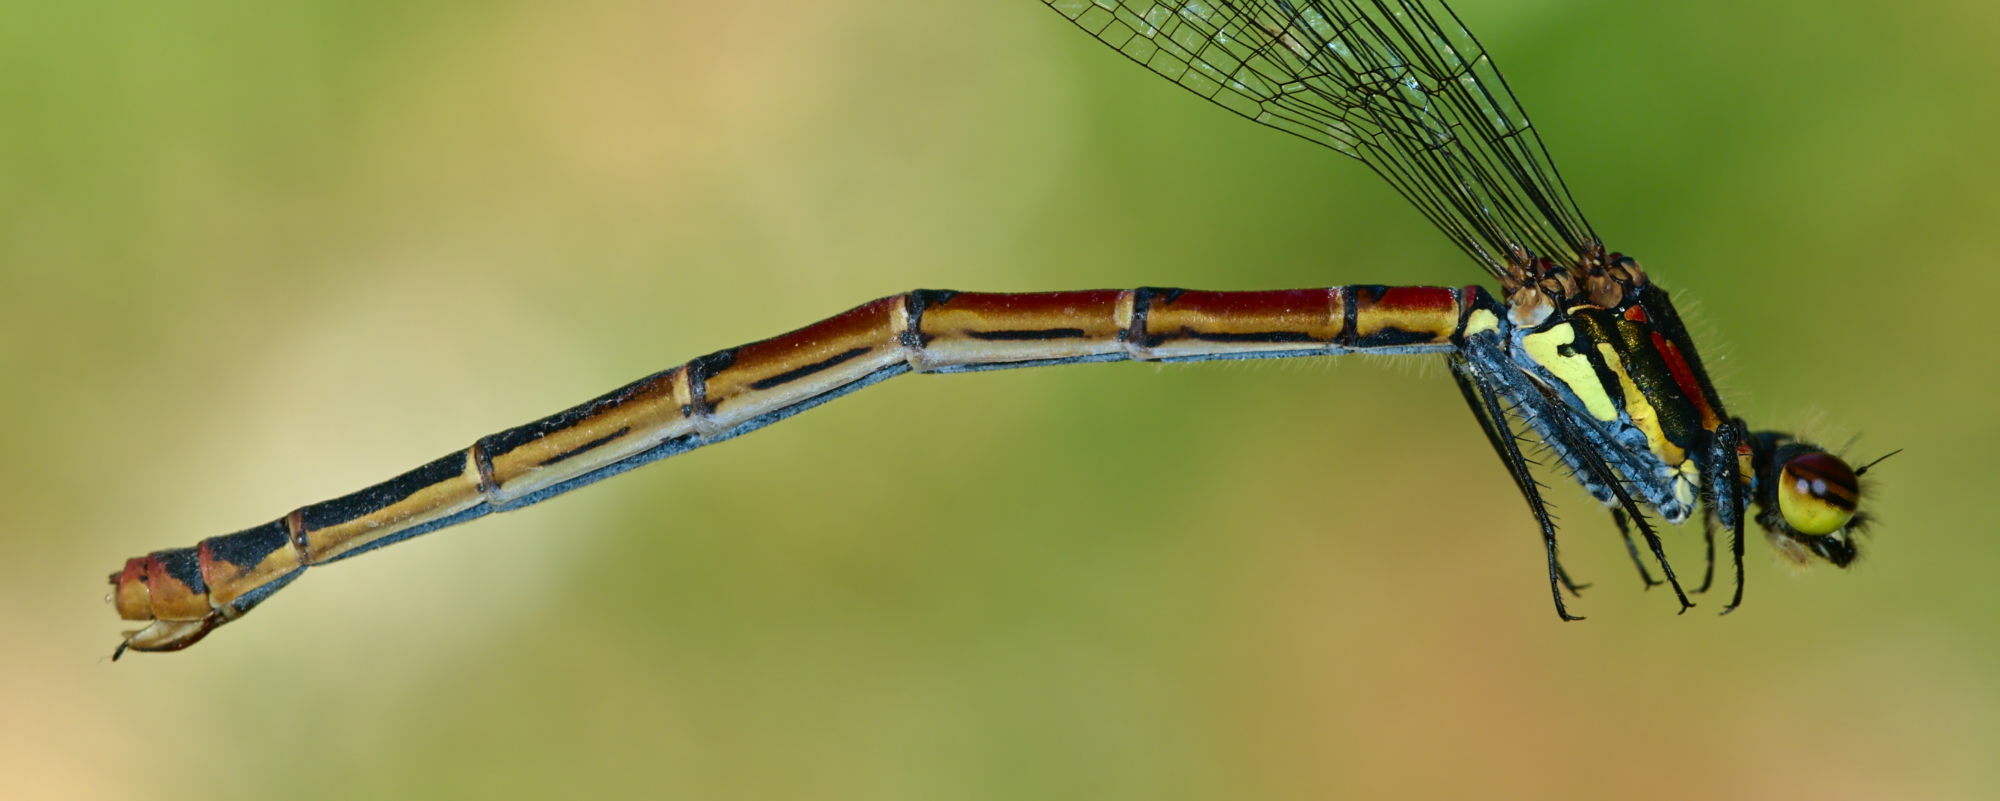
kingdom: Animalia
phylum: Arthropoda
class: Insecta
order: Odonata
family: Coenagrionidae
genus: Pyrrhosoma
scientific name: Pyrrhosoma nymphula
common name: Large red damsel
